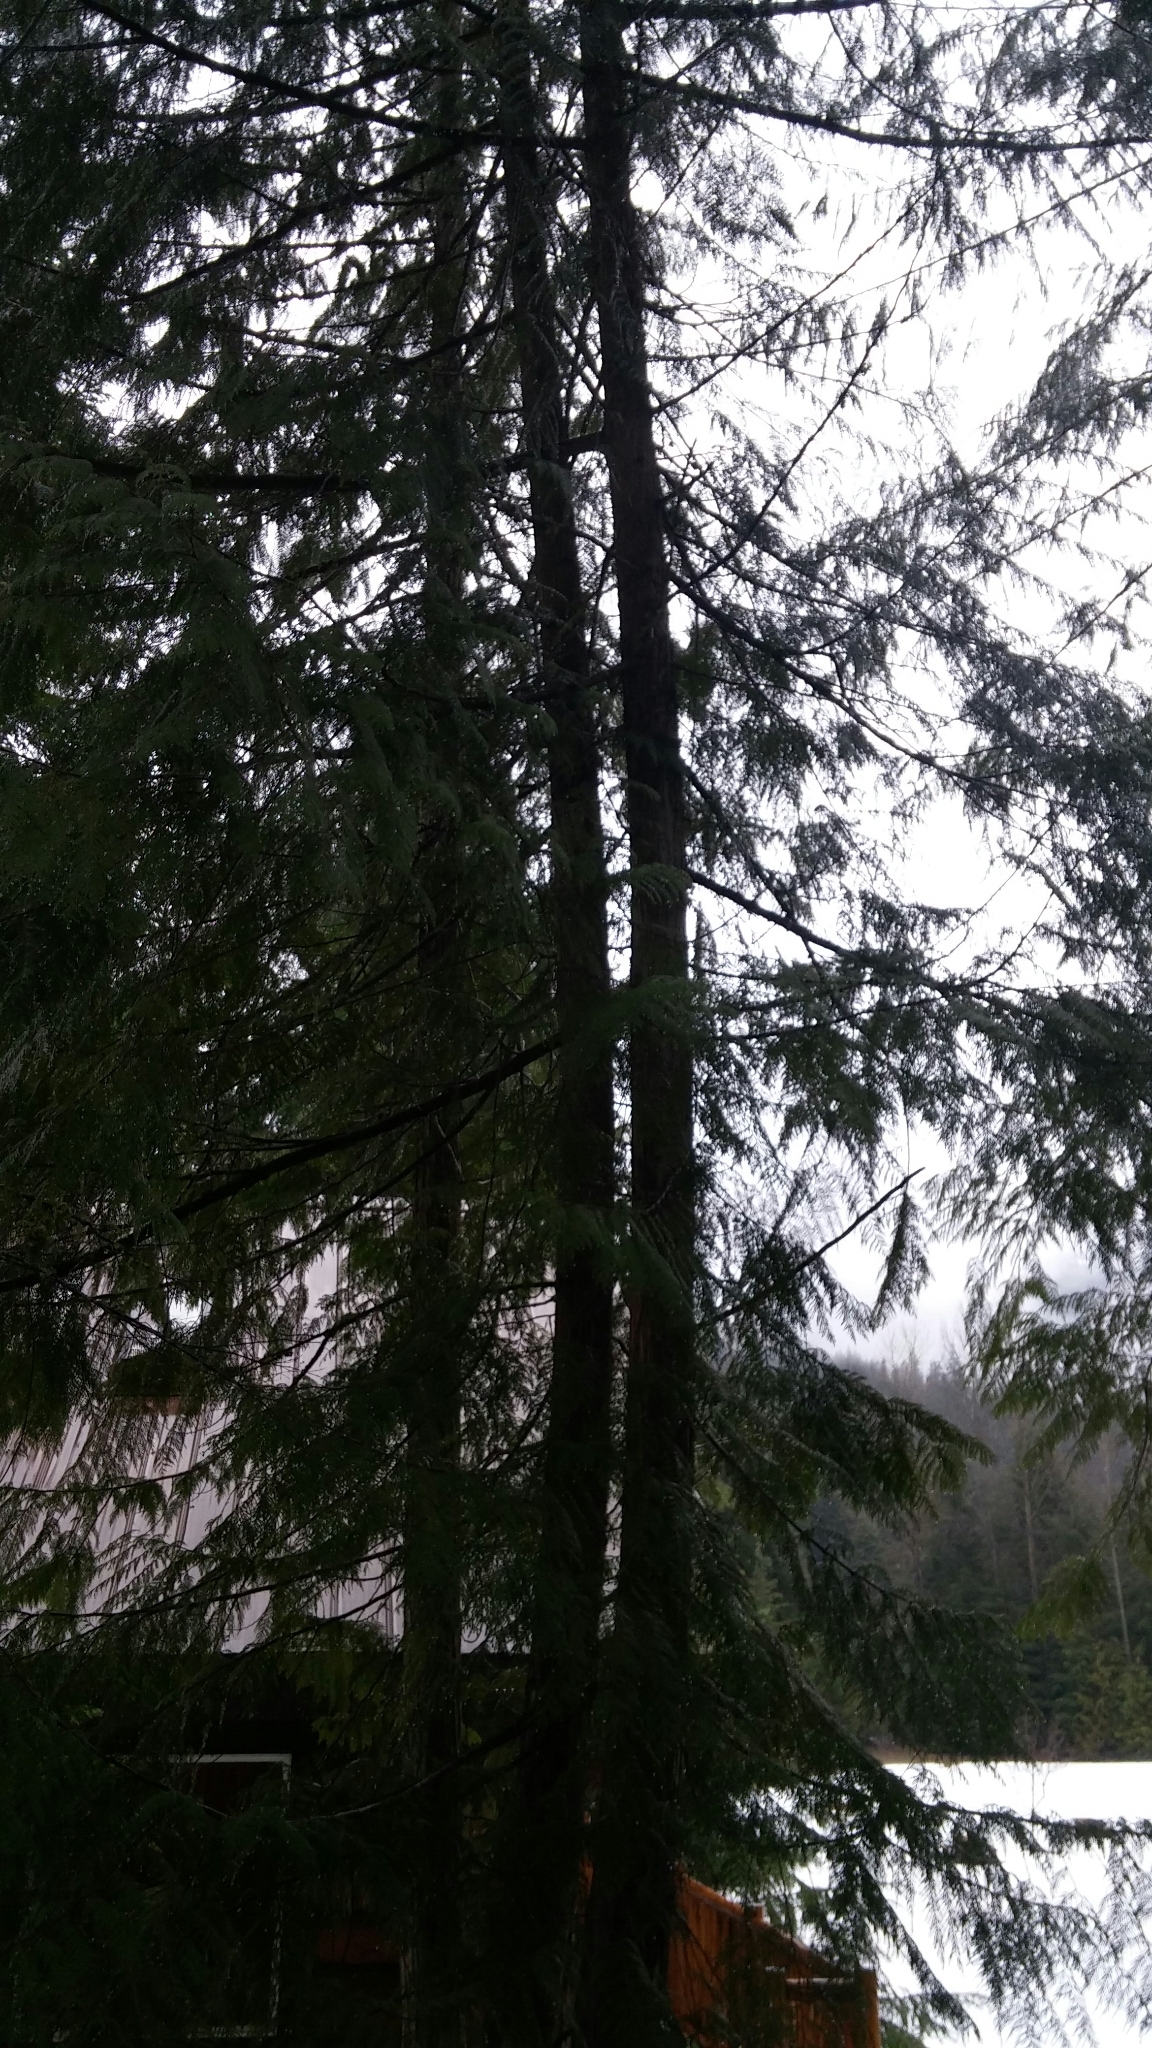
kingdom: Plantae
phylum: Tracheophyta
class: Pinopsida
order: Pinales
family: Cupressaceae
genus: Thuja
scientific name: Thuja plicata
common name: Western red-cedar
